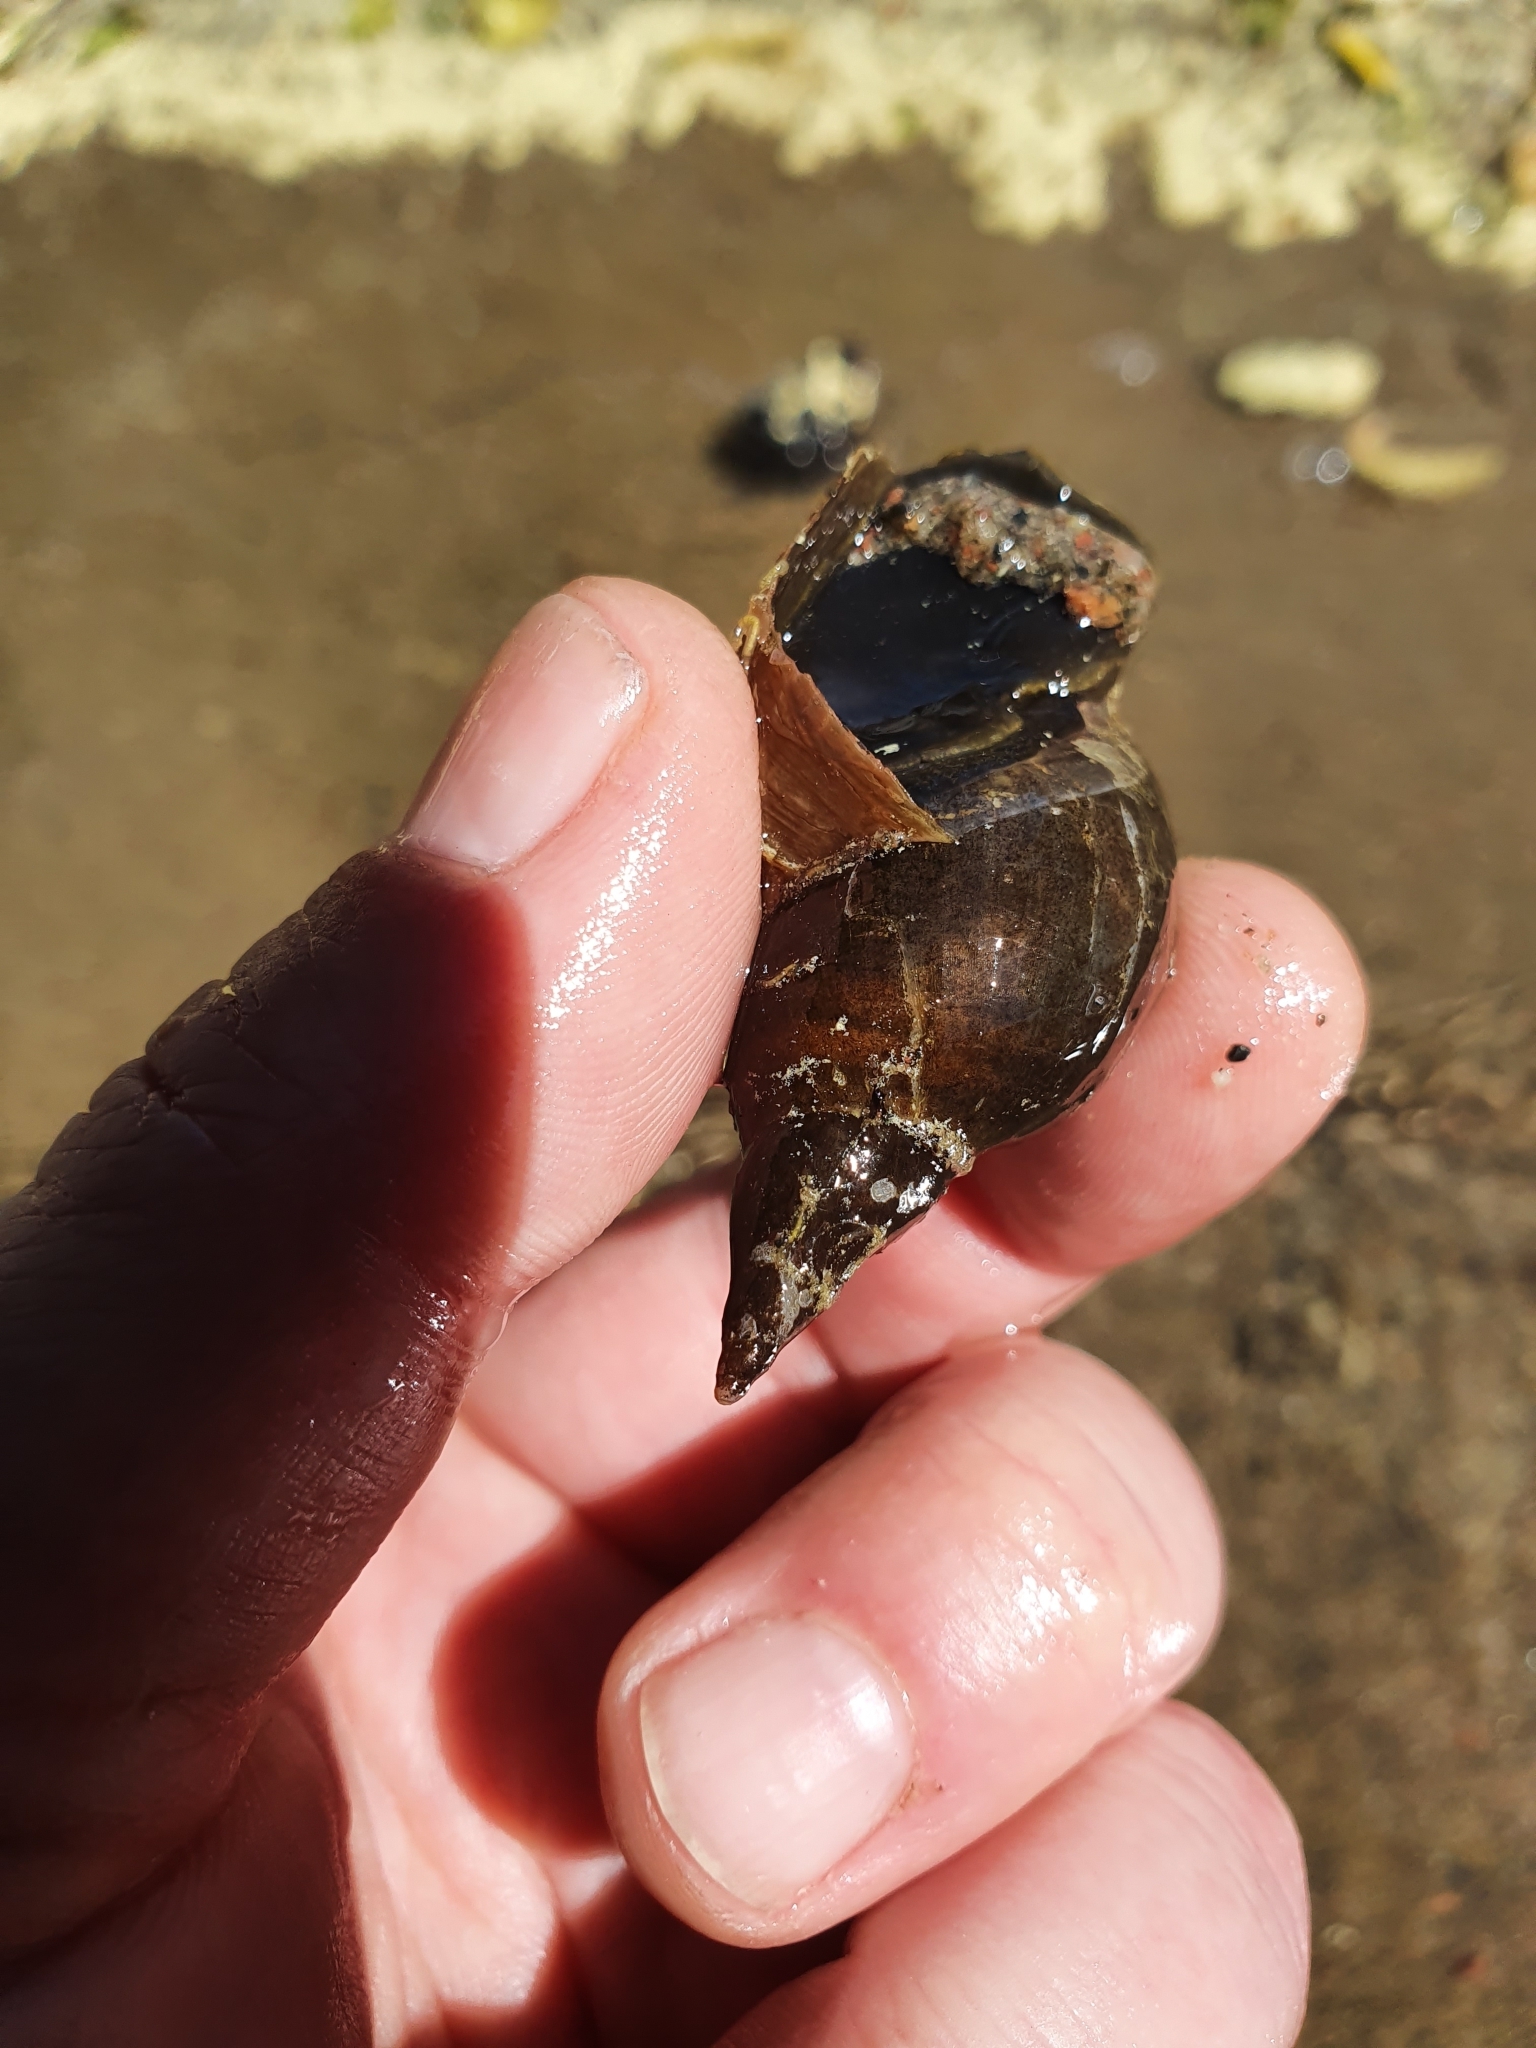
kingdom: Animalia
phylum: Mollusca
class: Gastropoda
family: Lymnaeidae
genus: Lymnaea
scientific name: Lymnaea stagnalis
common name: Great pond snail
